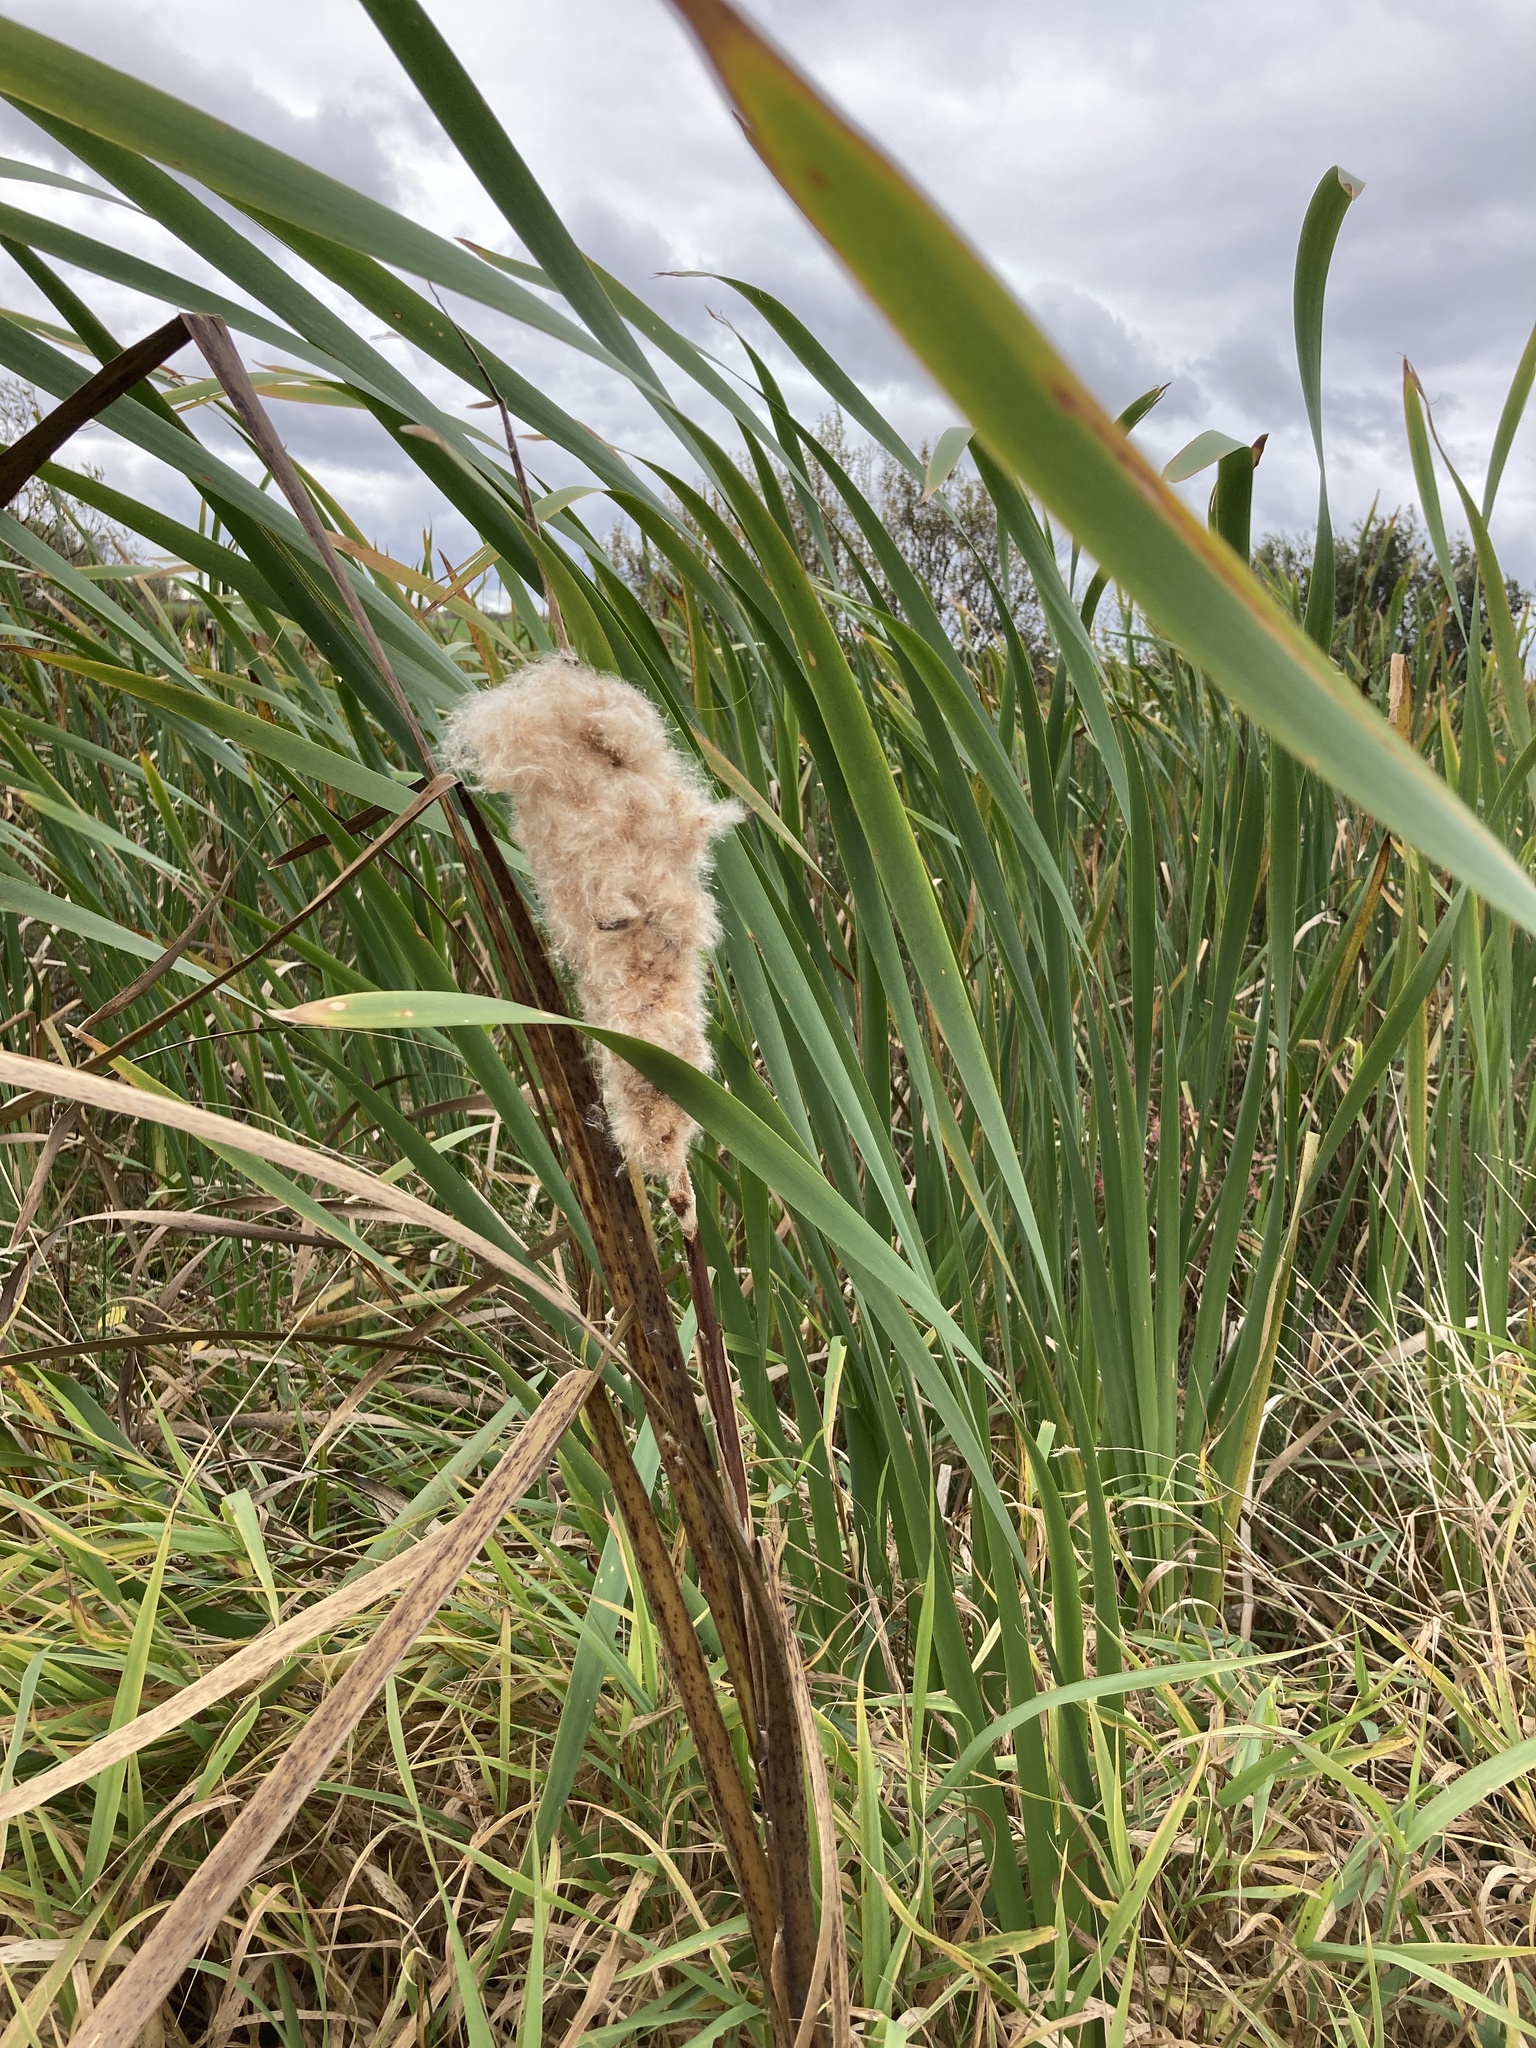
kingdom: Plantae
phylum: Tracheophyta
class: Liliopsida
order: Poales
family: Typhaceae
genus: Typha
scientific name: Typha latifolia
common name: Broadleaf cattail
